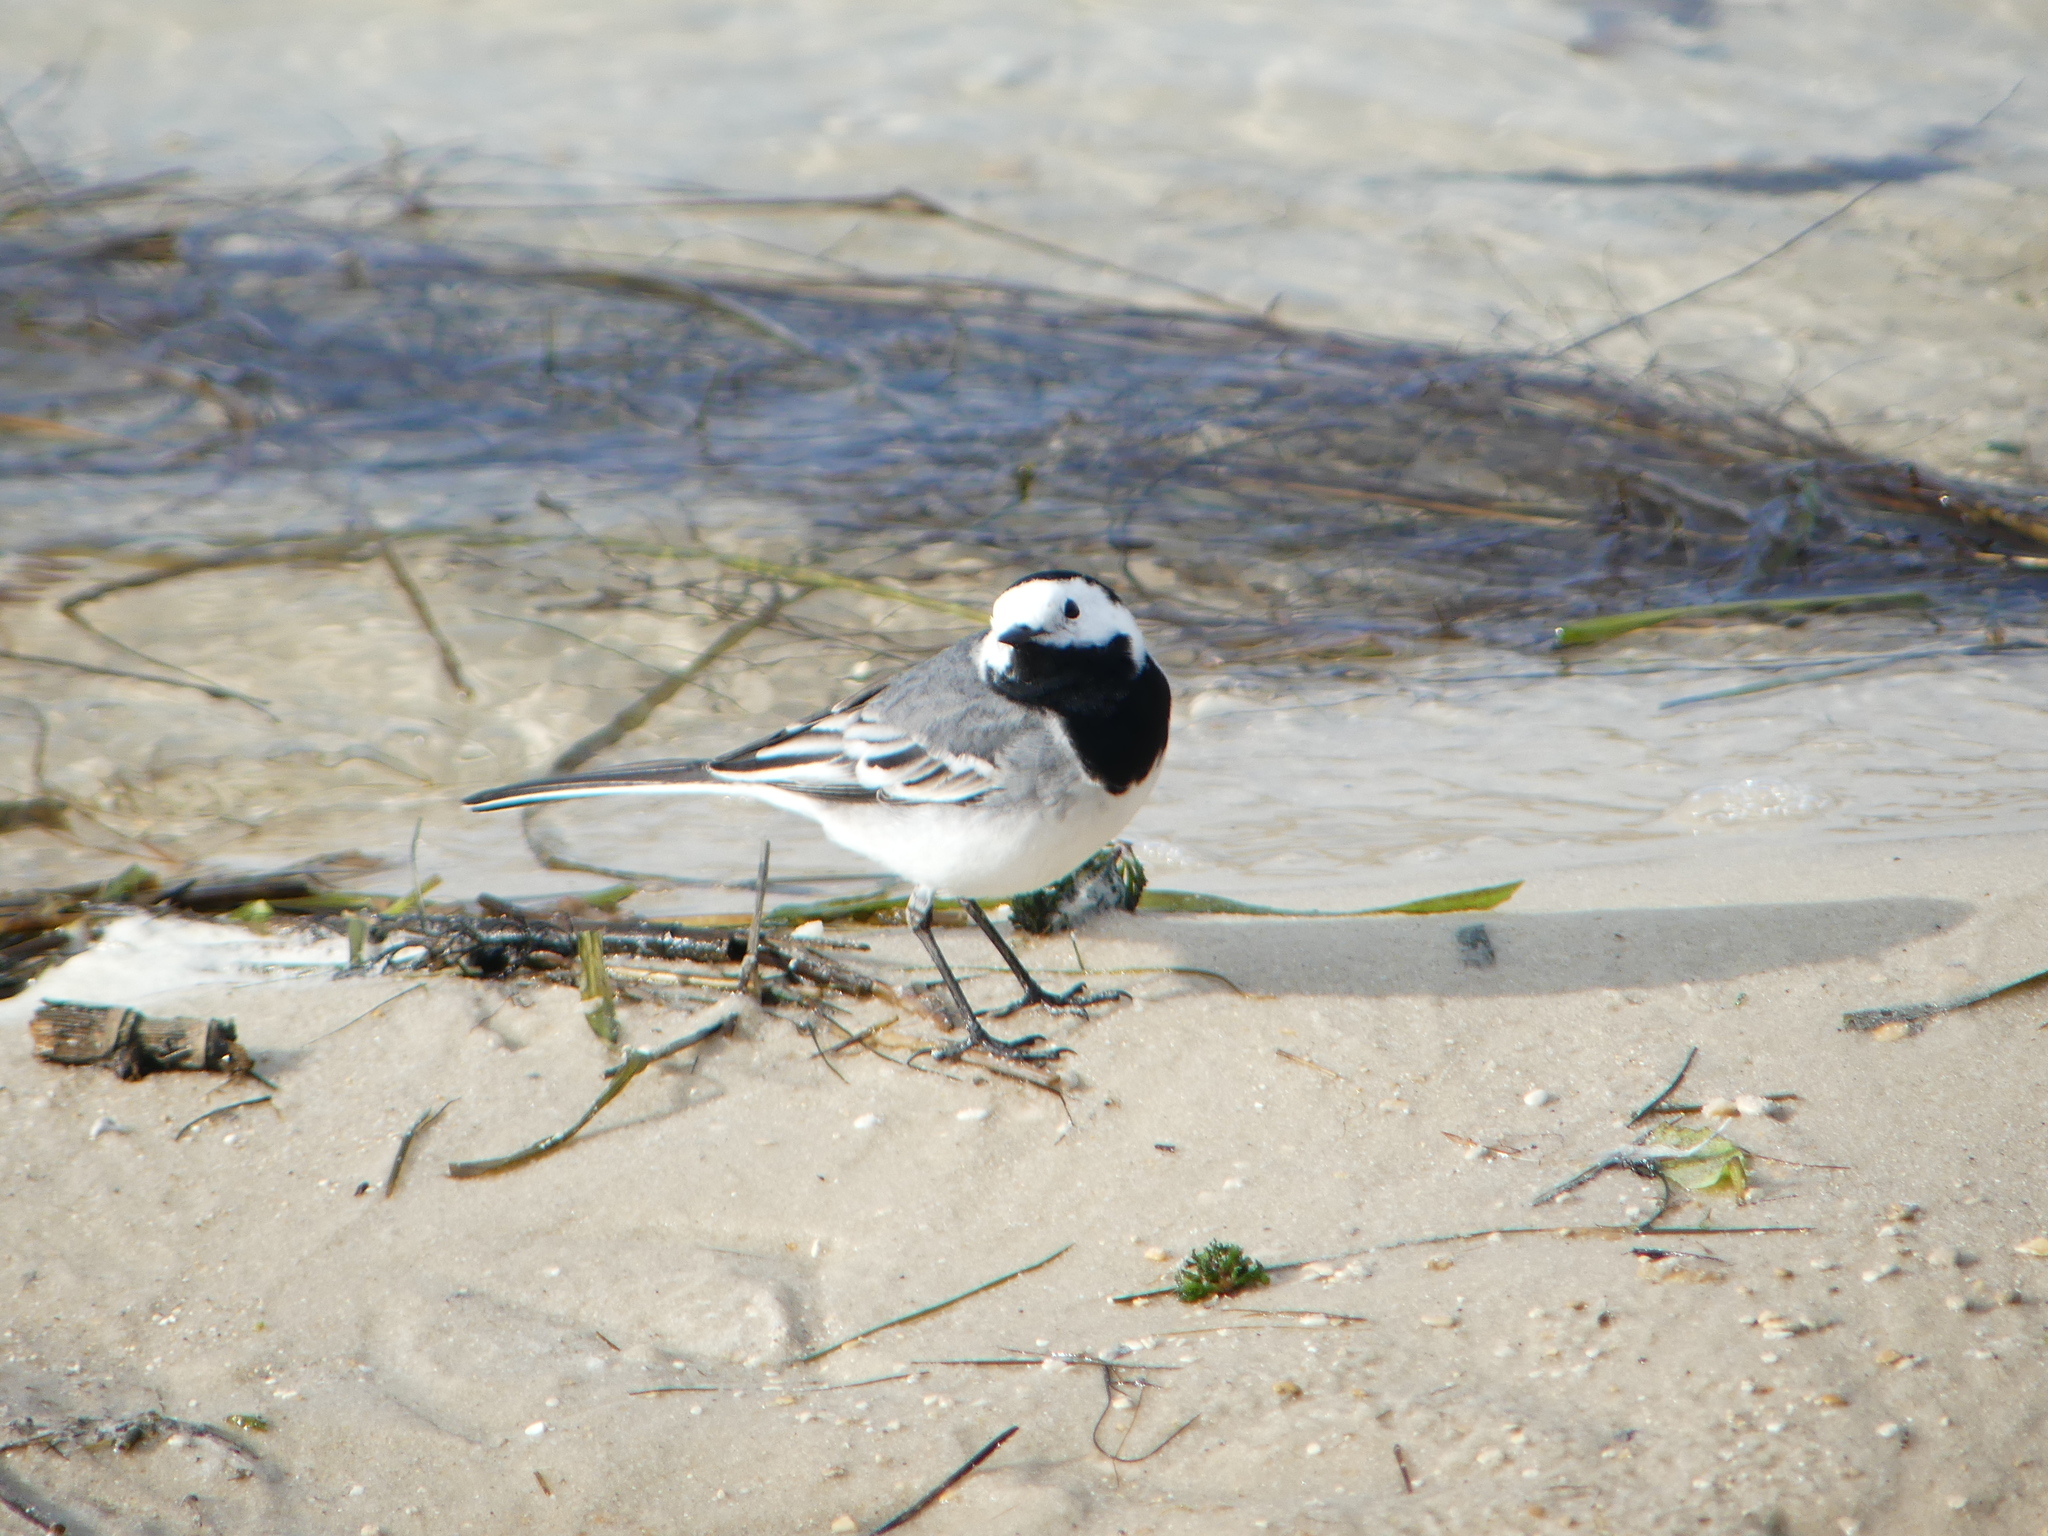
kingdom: Animalia
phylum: Chordata
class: Aves
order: Passeriformes
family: Motacillidae
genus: Motacilla
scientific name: Motacilla alba
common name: White wagtail
